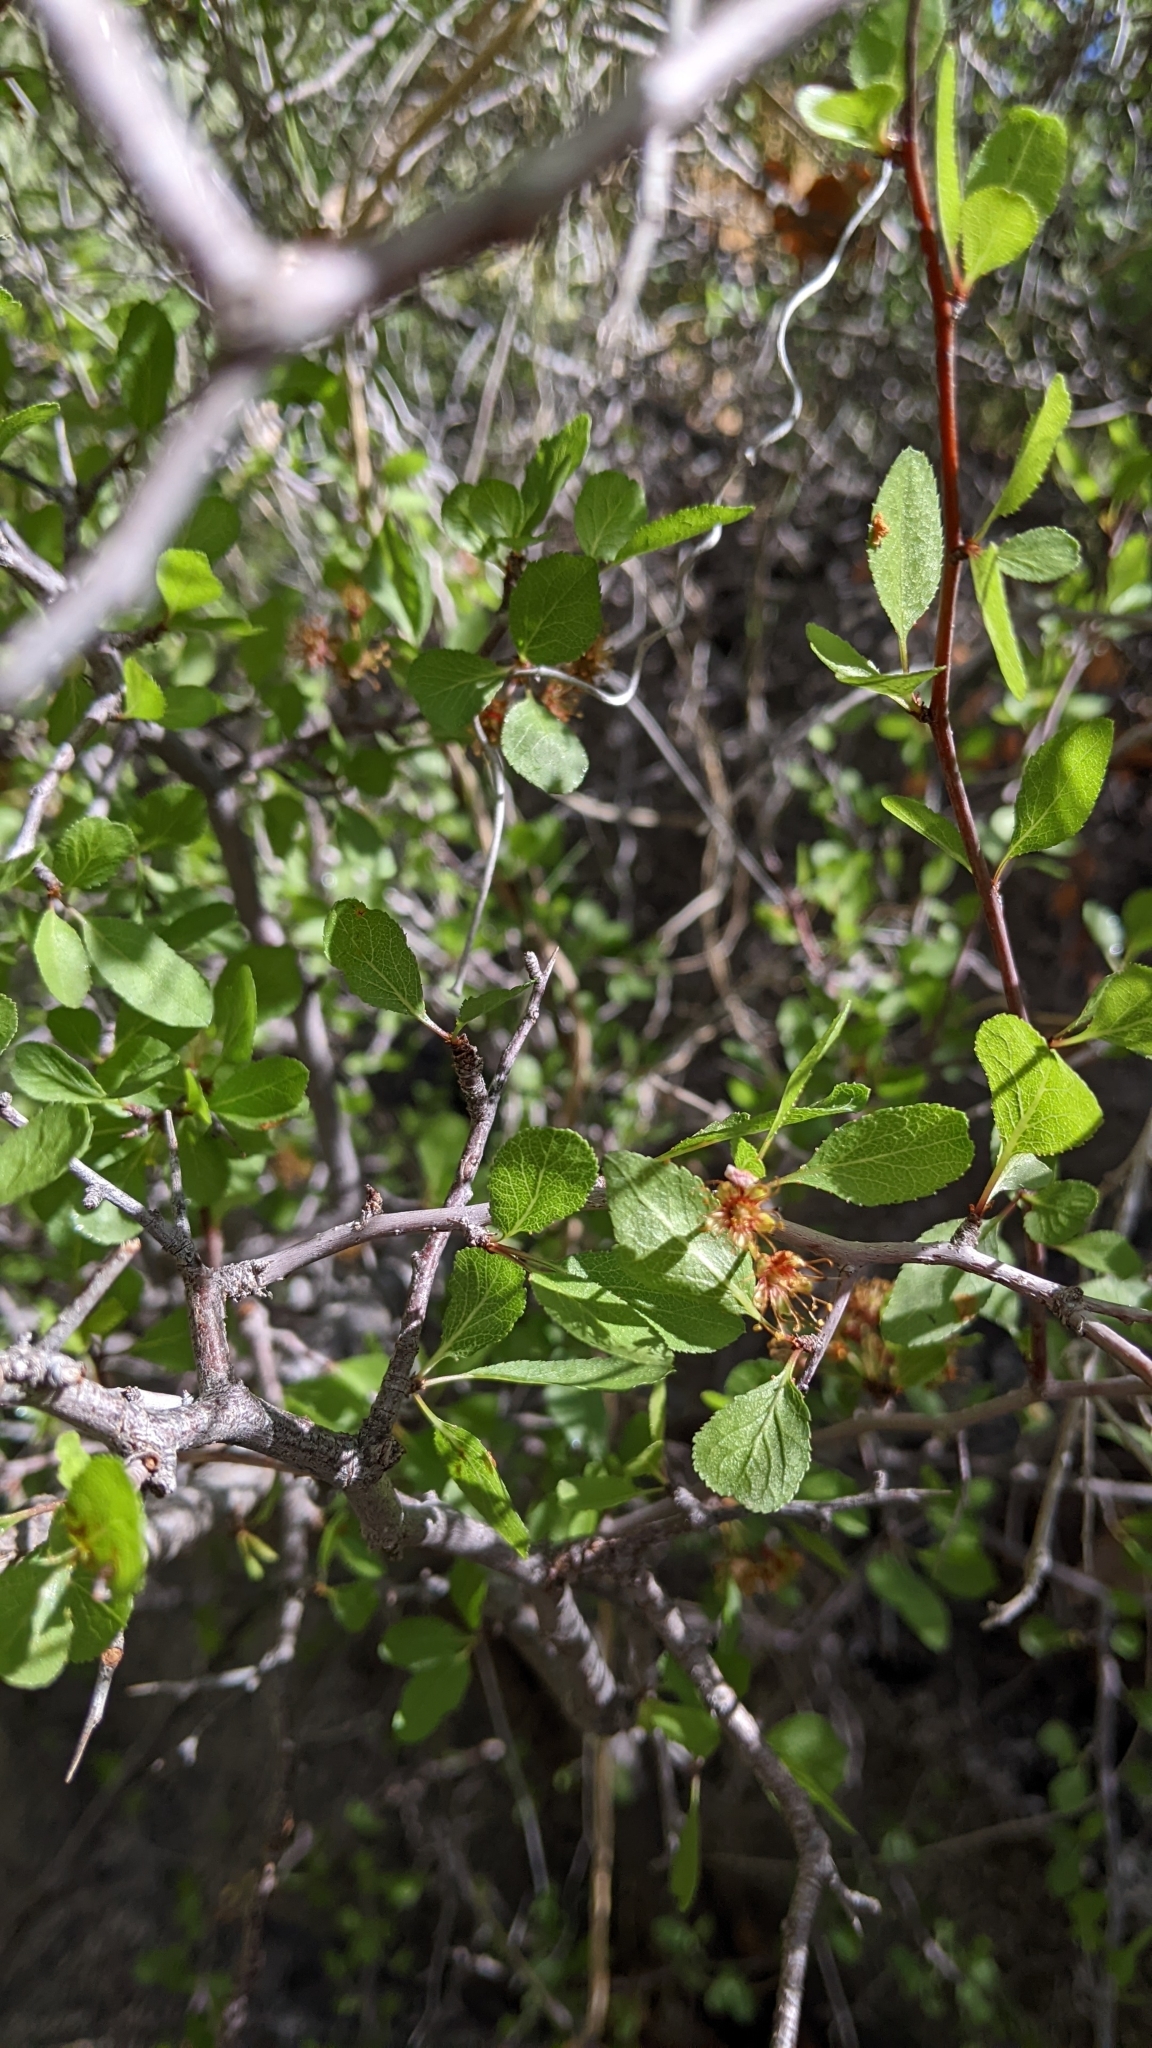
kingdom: Plantae
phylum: Tracheophyta
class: Magnoliopsida
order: Rosales
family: Rosaceae
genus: Prunus
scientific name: Prunus fremontii
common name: Desert apricot
